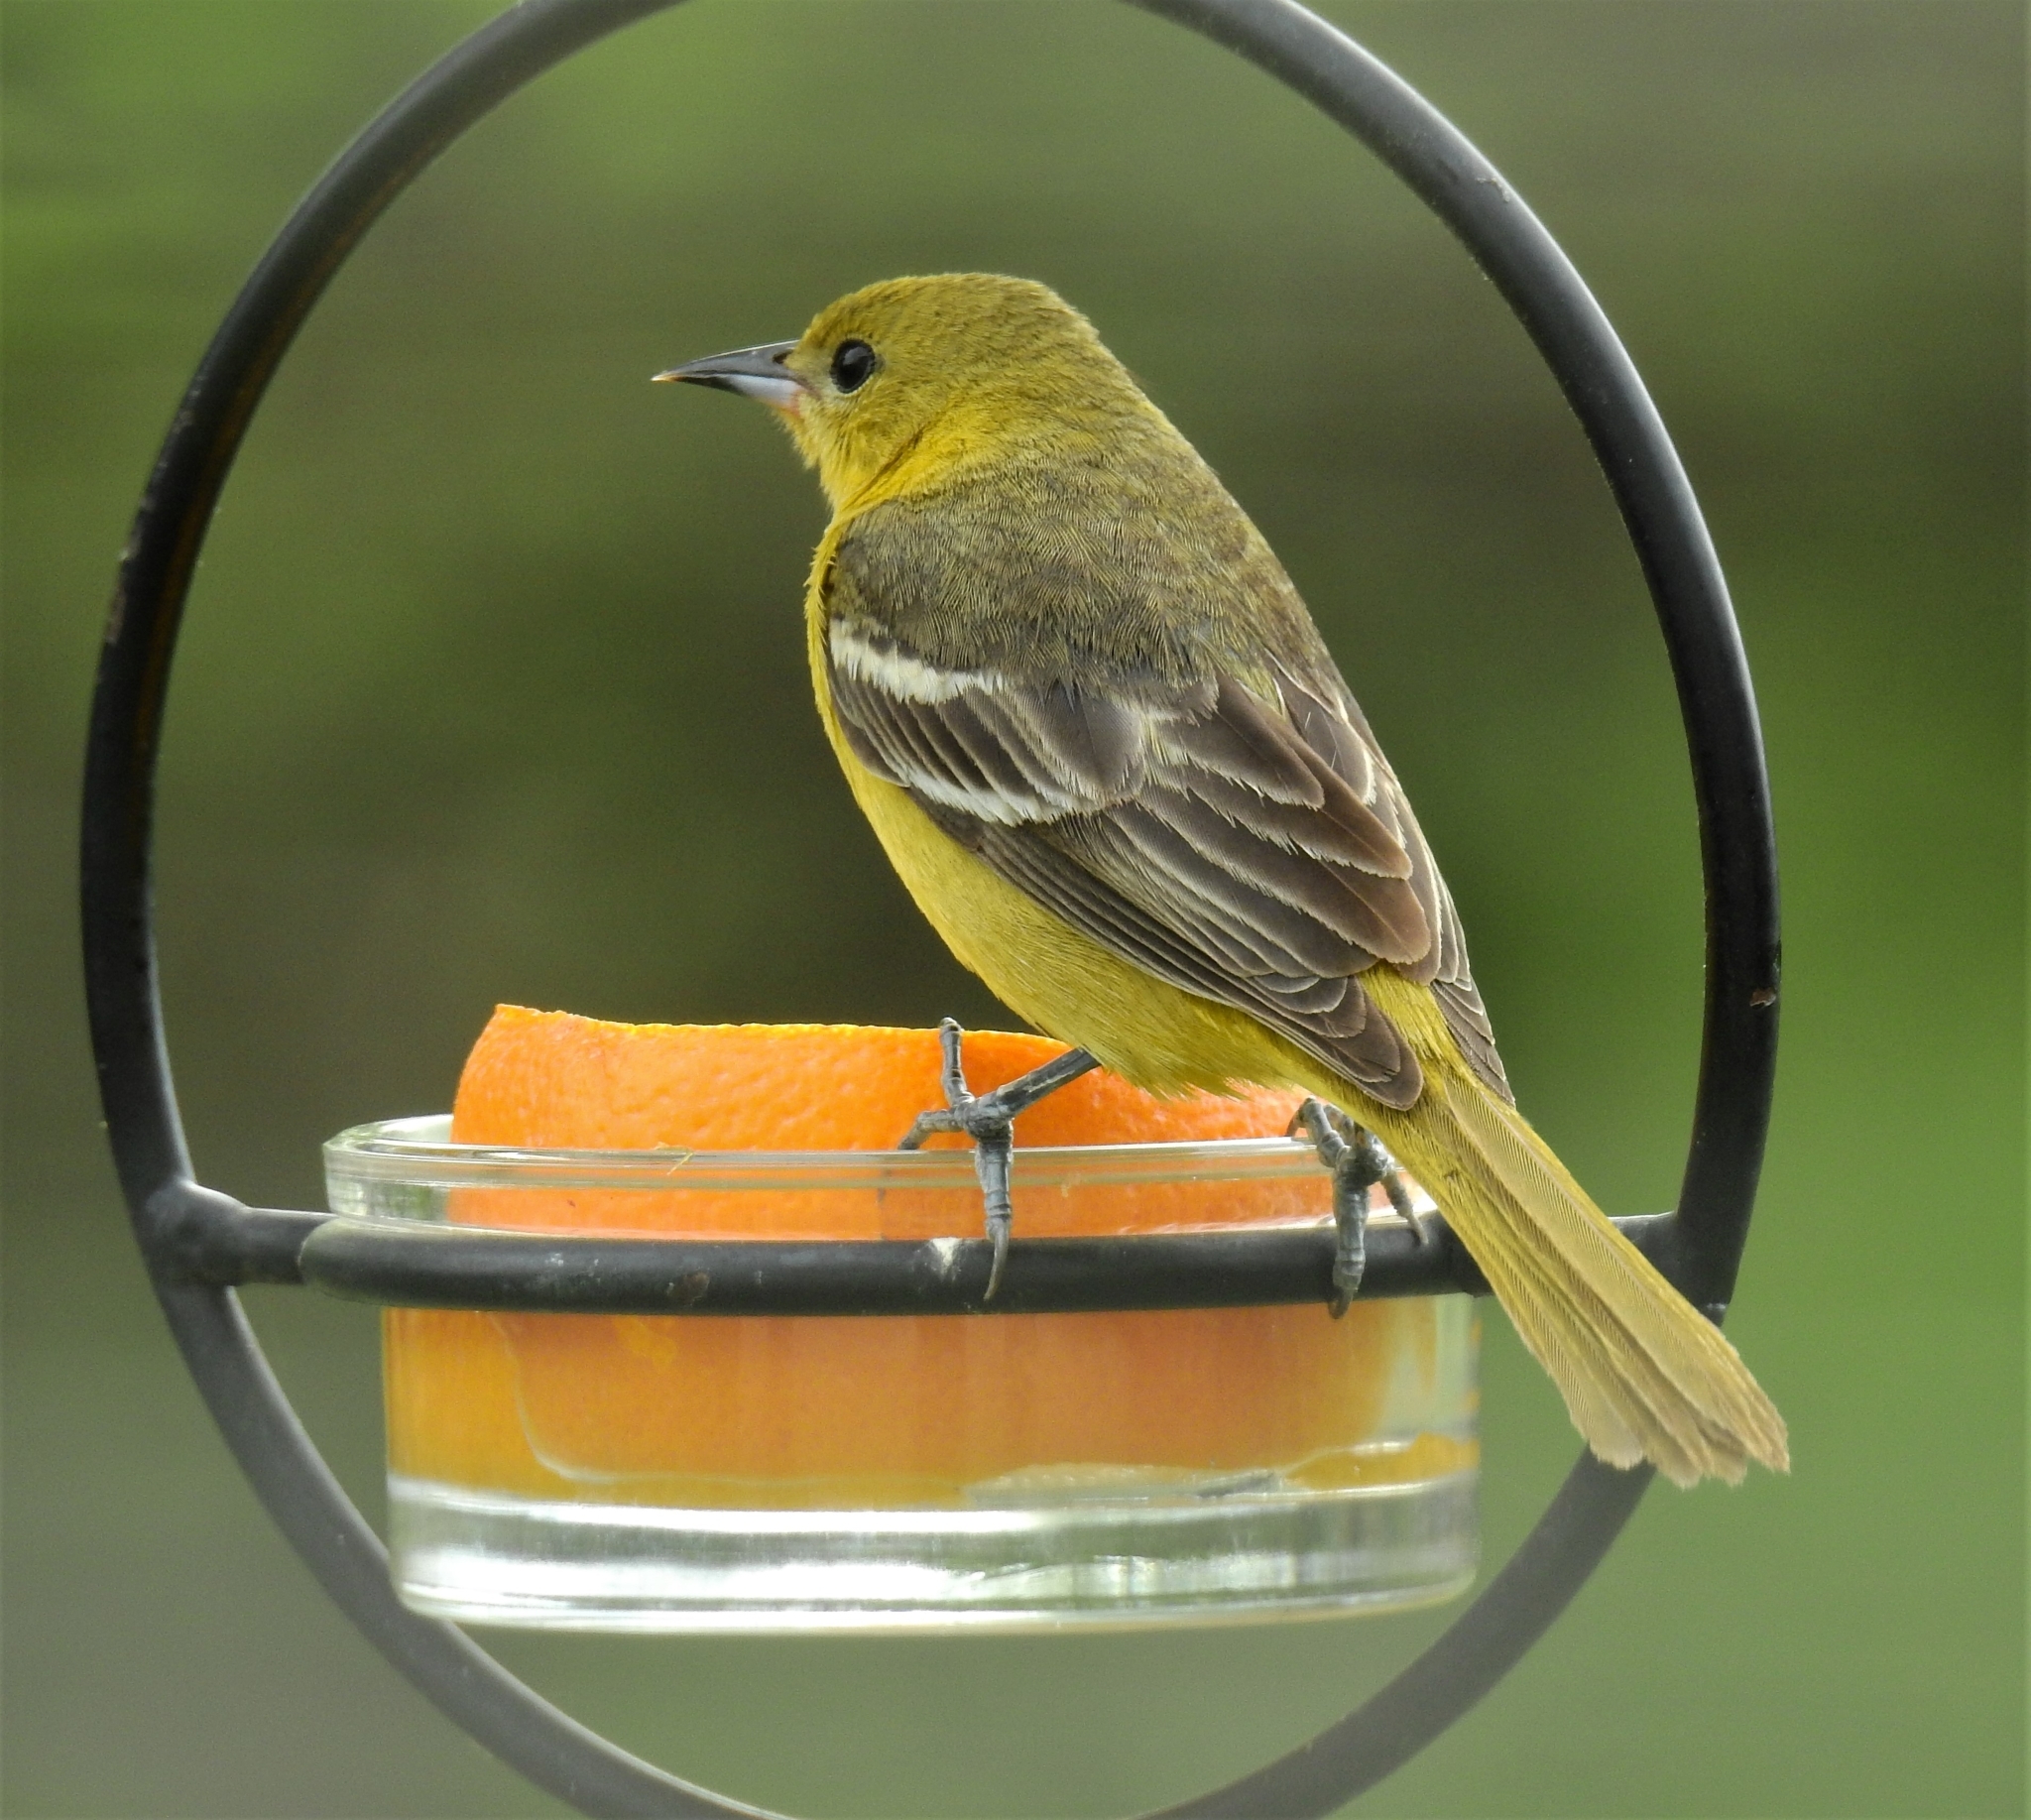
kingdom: Animalia
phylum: Chordata
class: Aves
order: Passeriformes
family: Icteridae
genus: Icterus
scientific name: Icterus spurius
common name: Orchard oriole
